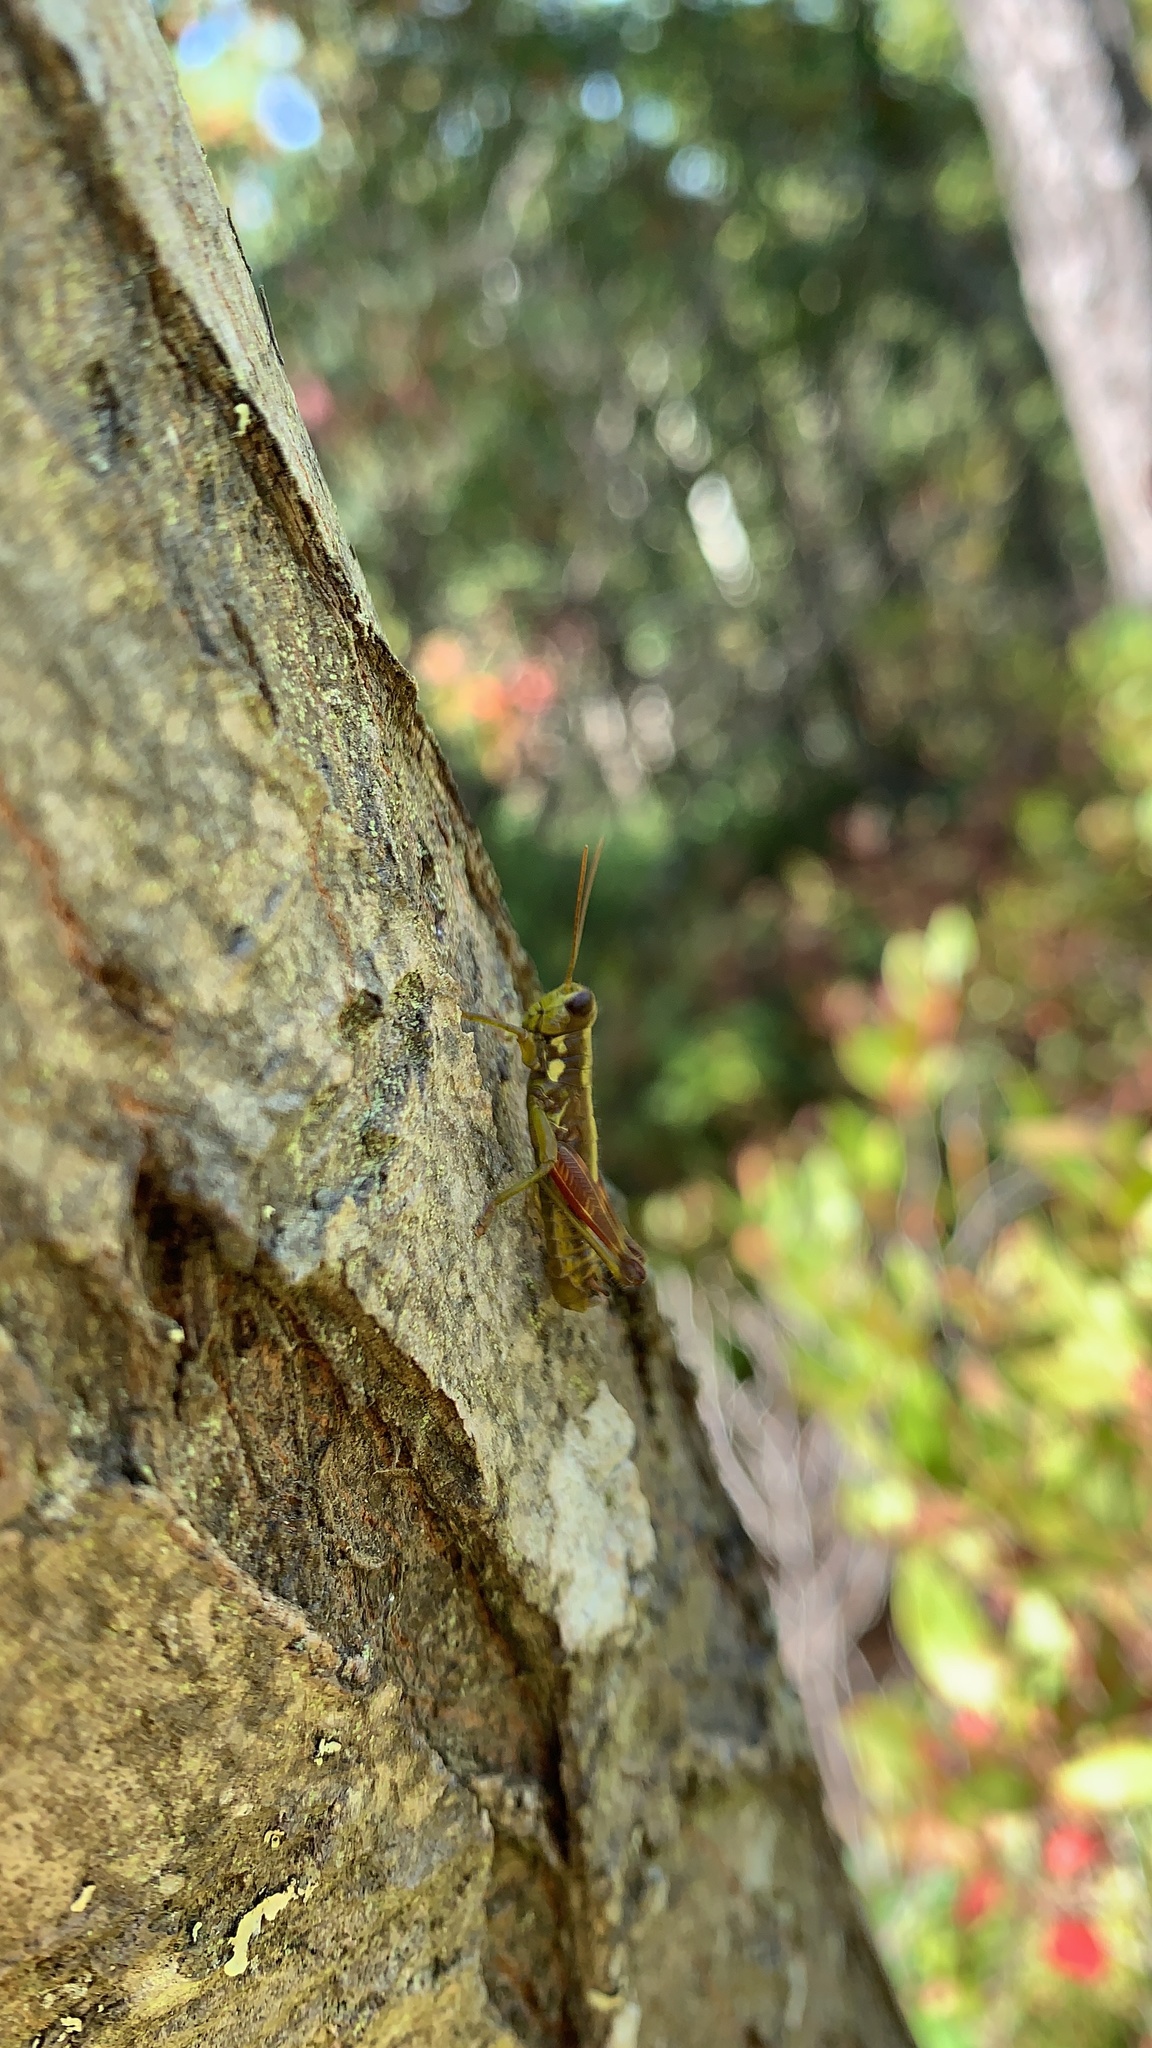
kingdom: Animalia
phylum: Arthropoda
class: Insecta
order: Orthoptera
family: Acrididae
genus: Booneacris
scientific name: Booneacris glacialis
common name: Wingless mountain grasshopper
